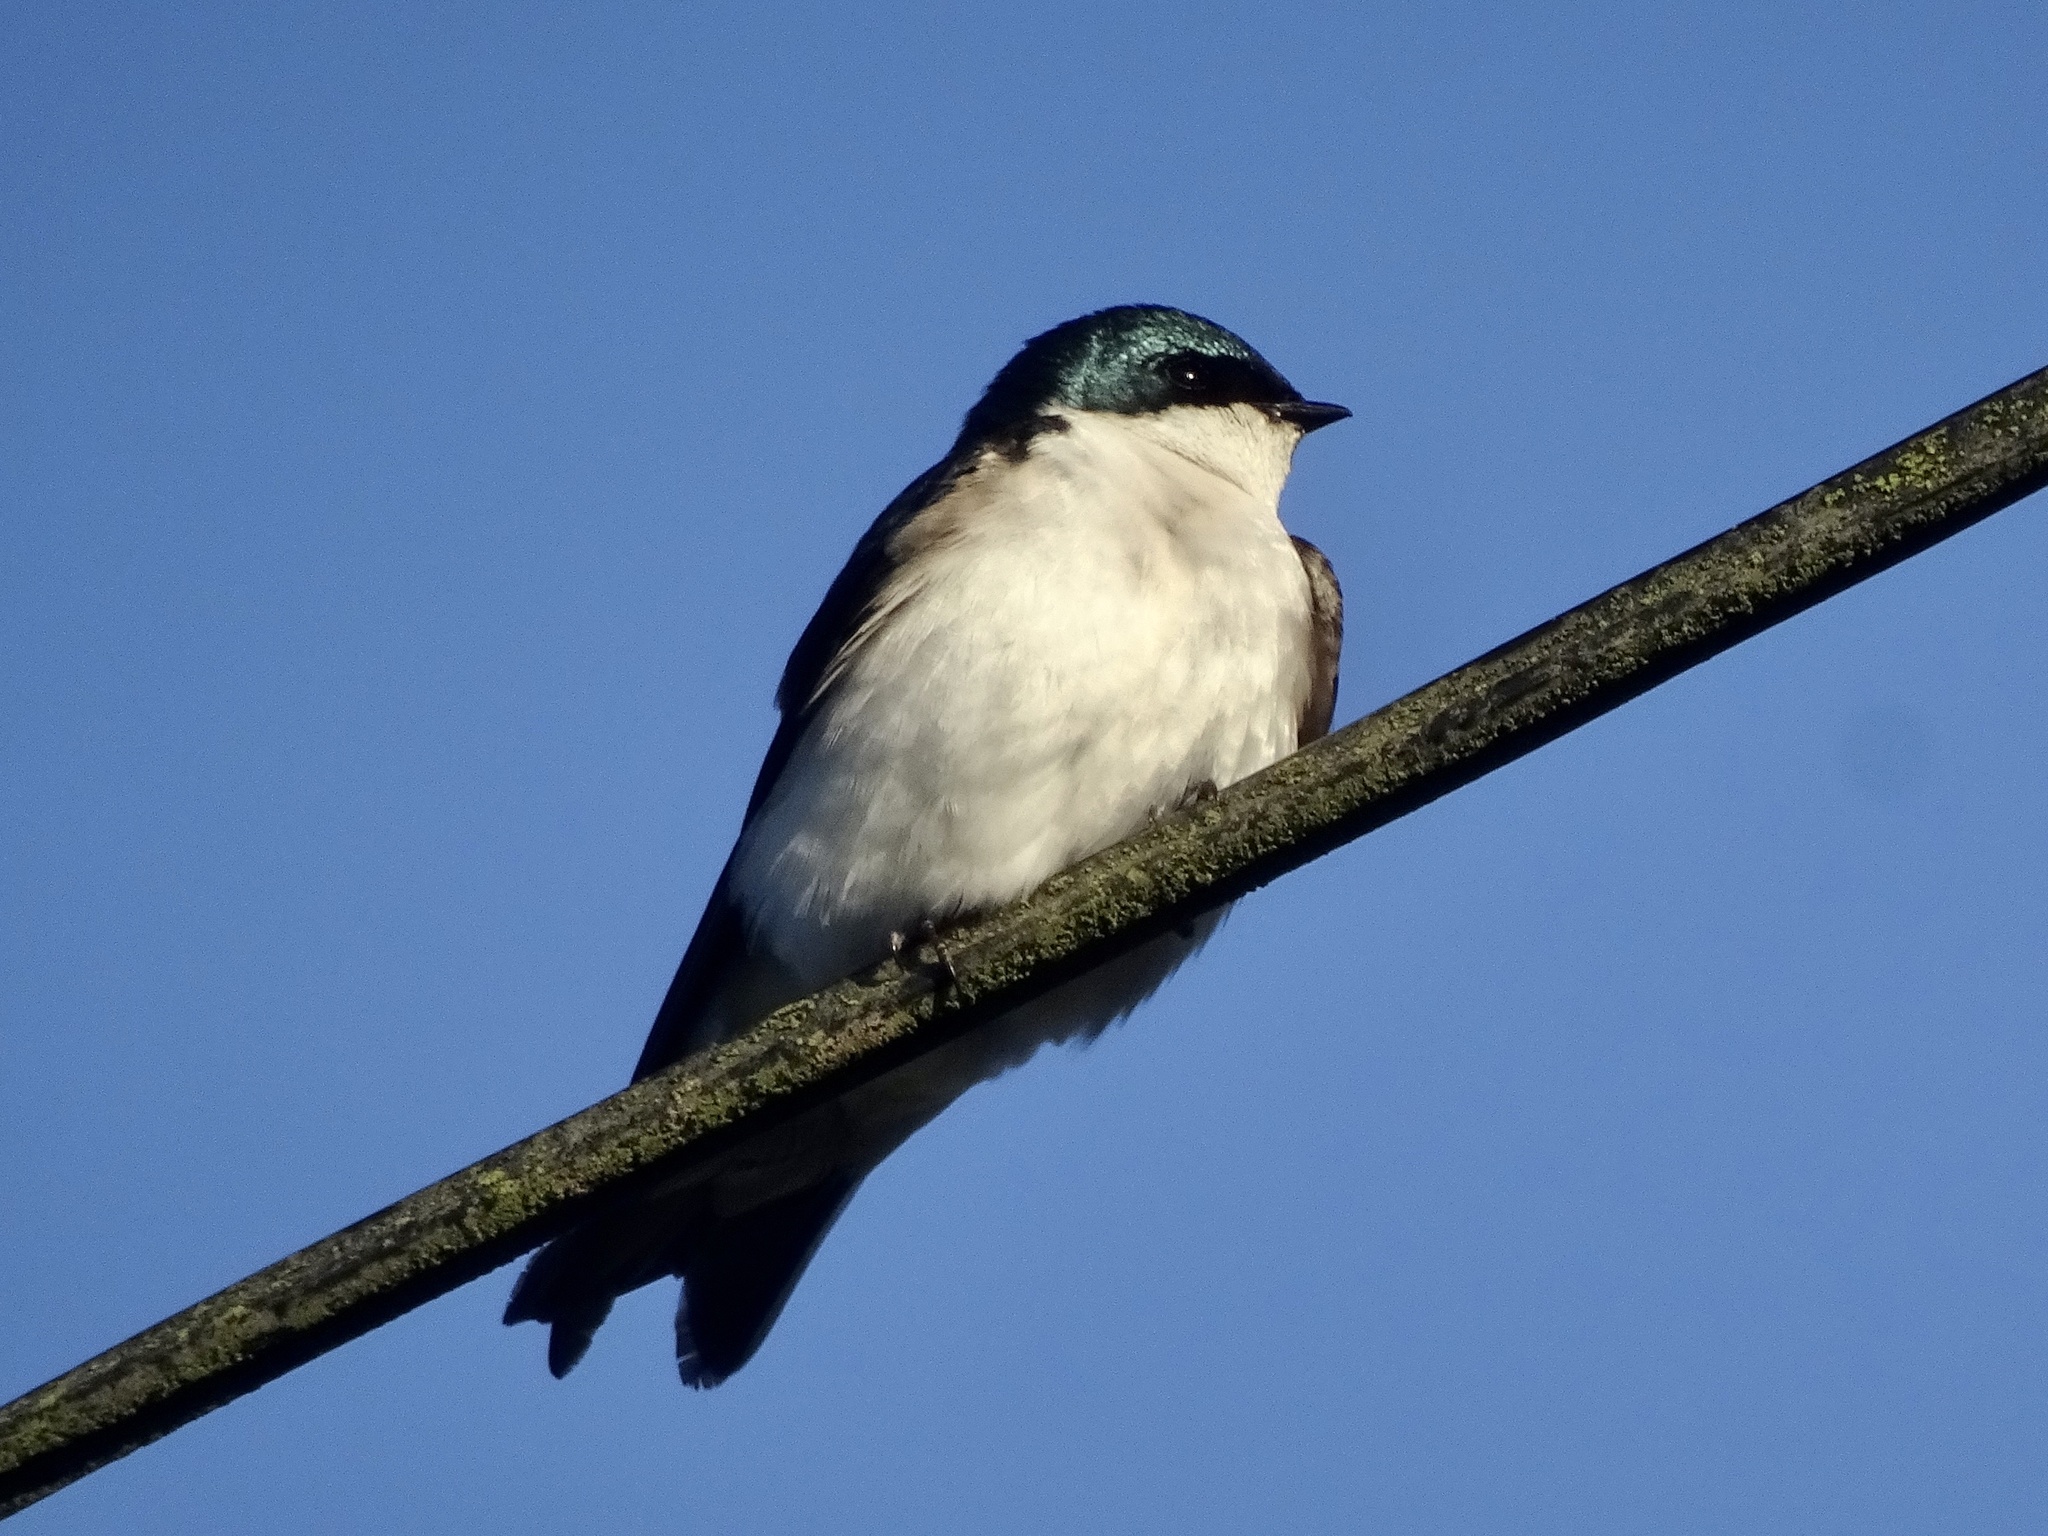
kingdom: Animalia
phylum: Chordata
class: Aves
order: Passeriformes
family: Hirundinidae
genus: Tachycineta
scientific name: Tachycineta bicolor
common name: Tree swallow
